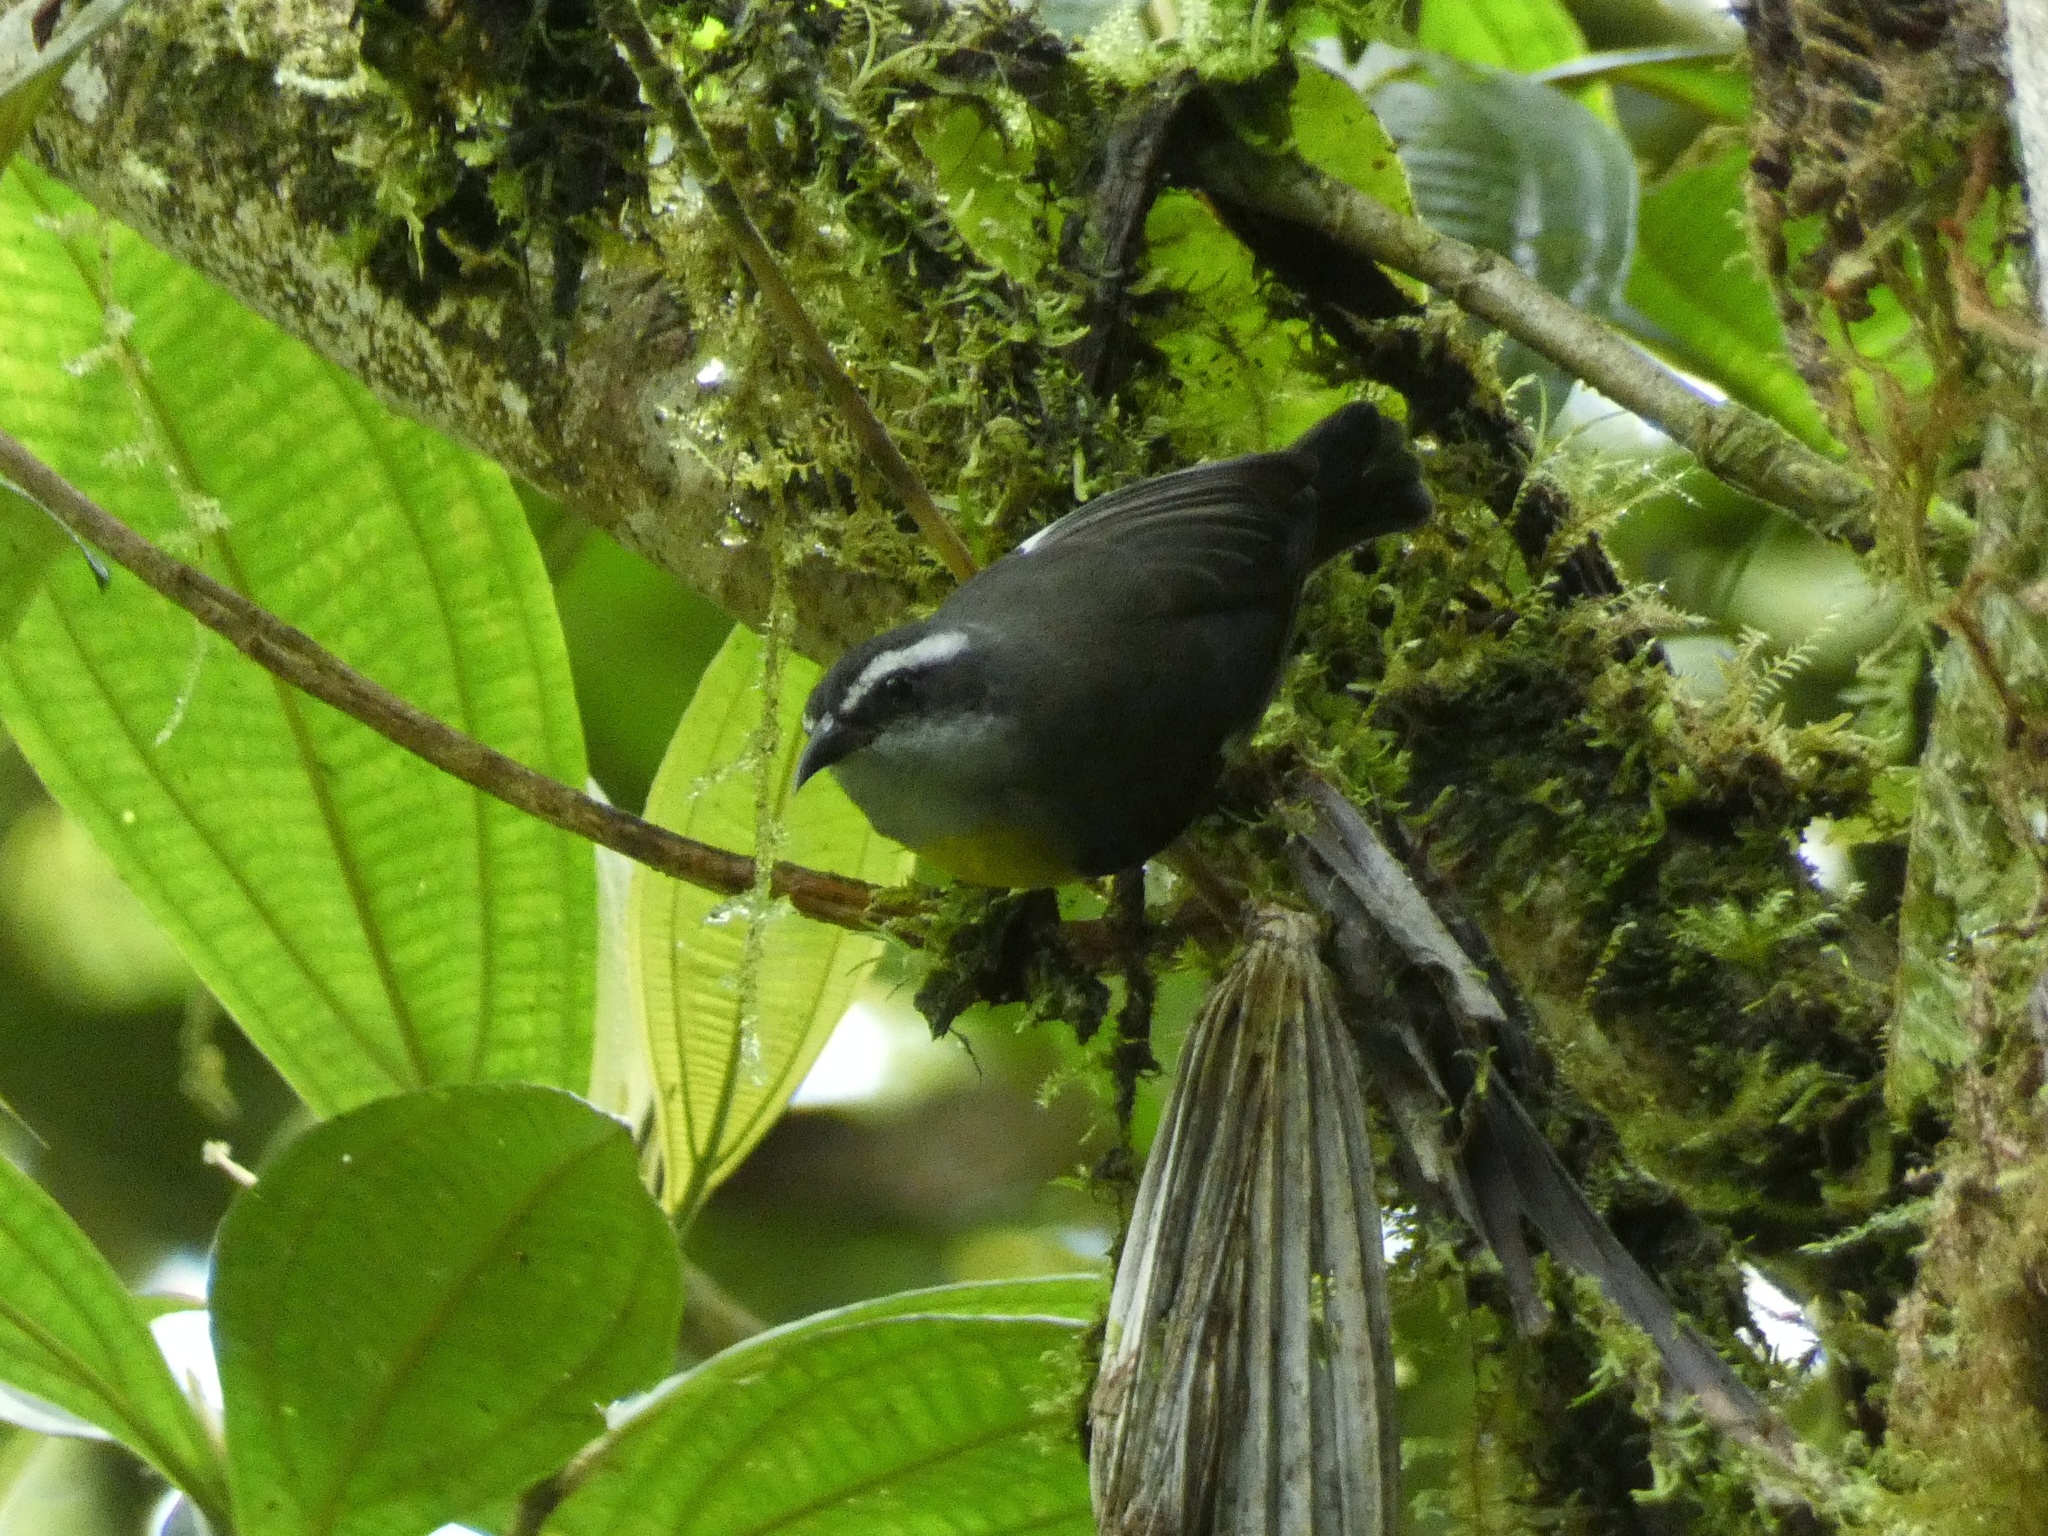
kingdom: Animalia
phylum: Chordata
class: Aves
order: Passeriformes
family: Thraupidae
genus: Coereba
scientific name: Coereba flaveola
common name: Bananaquit
